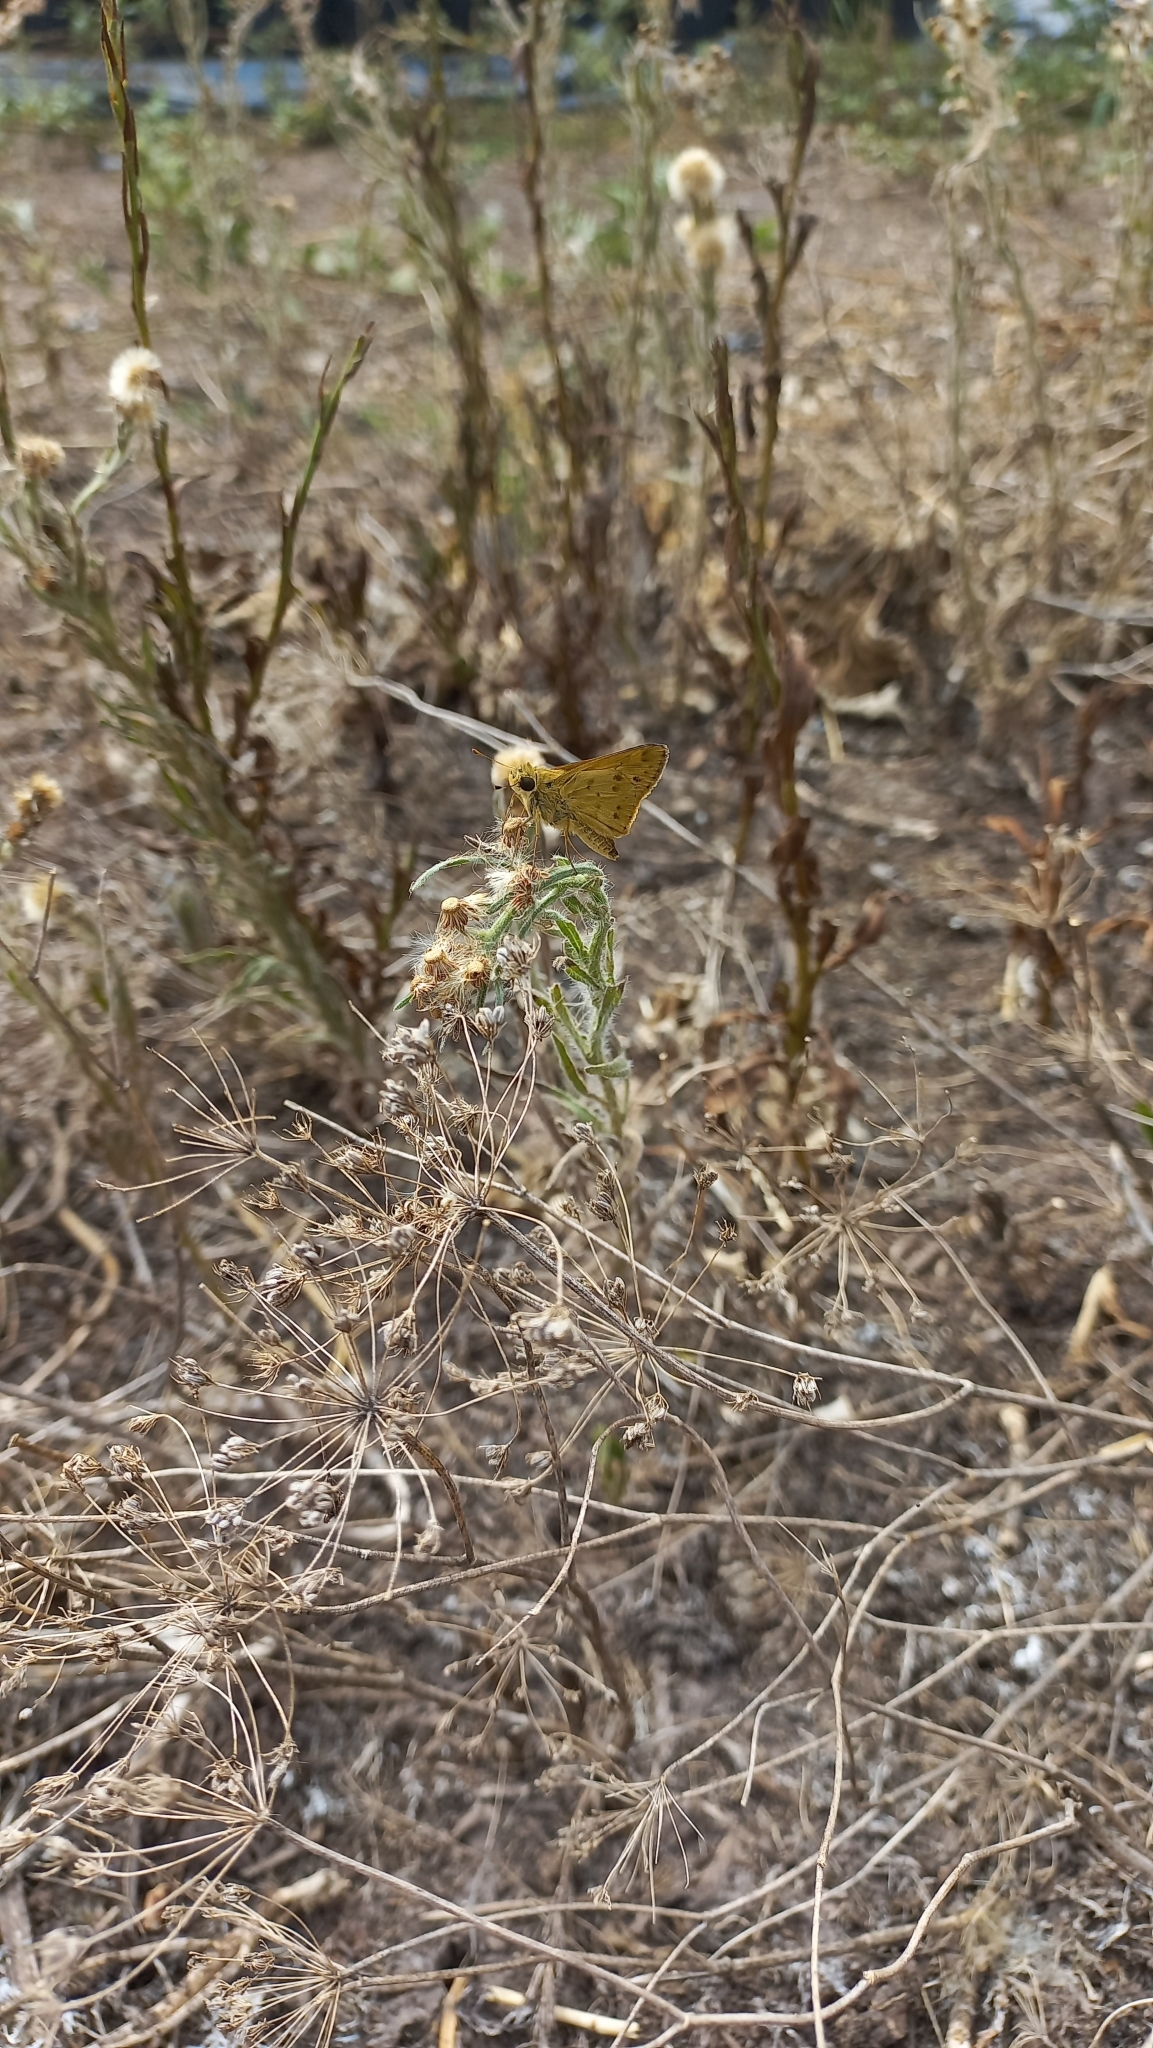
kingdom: Animalia
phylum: Arthropoda
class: Insecta
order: Lepidoptera
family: Hesperiidae
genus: Hylephila
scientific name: Hylephila phyleus
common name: Fiery skipper
